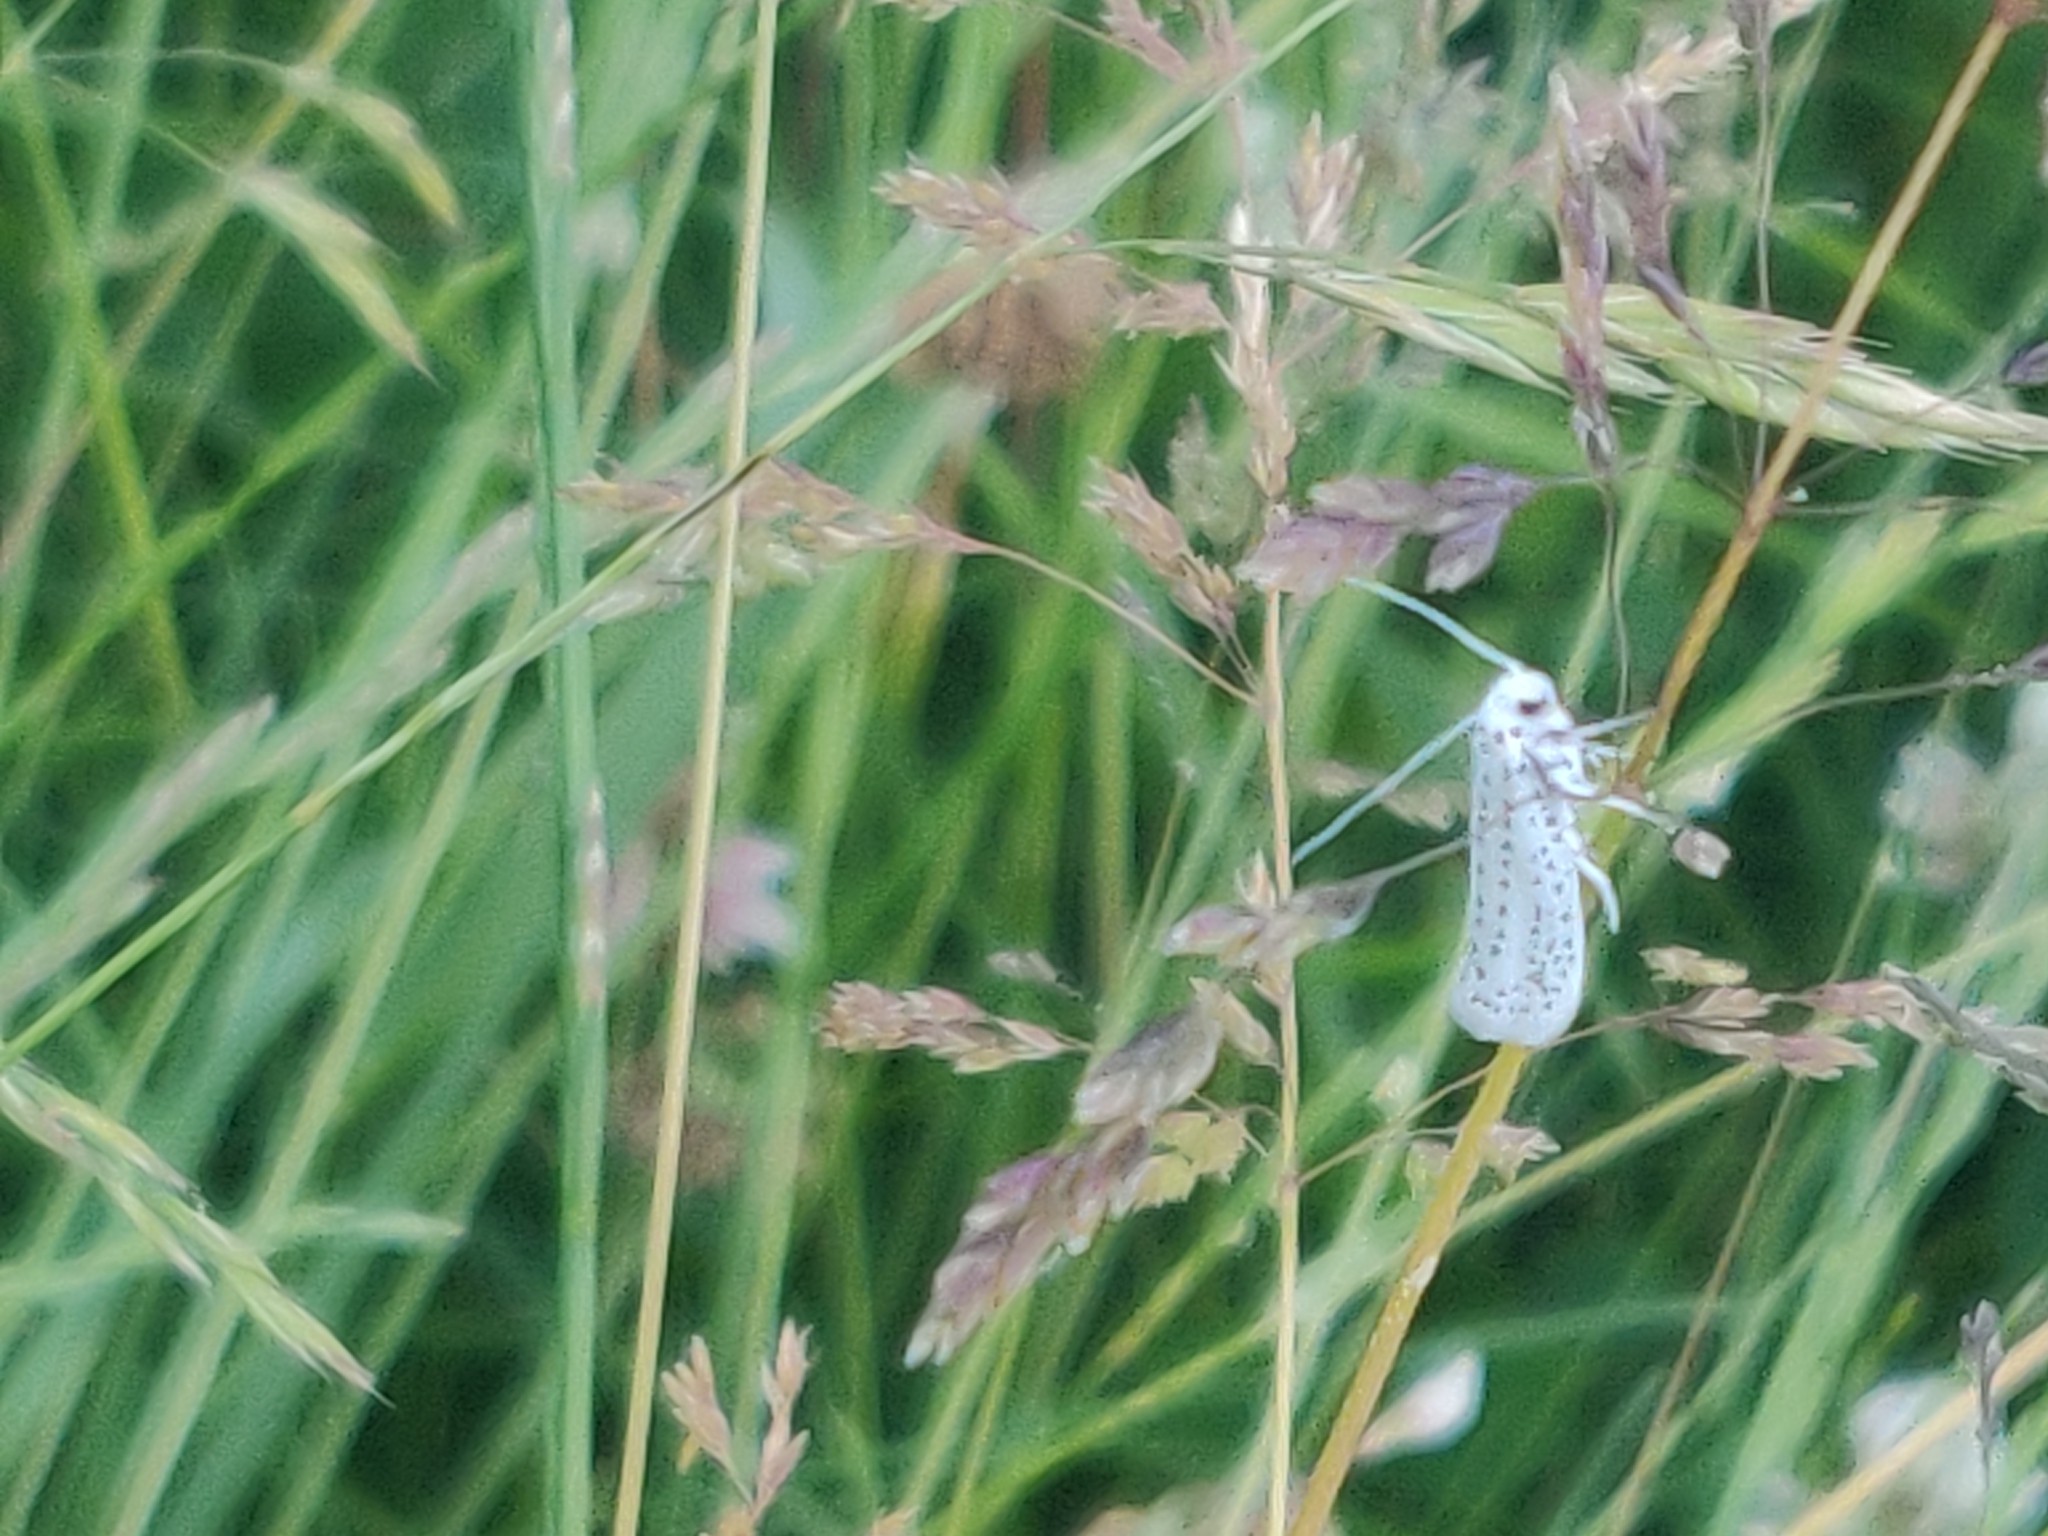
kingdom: Animalia
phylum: Arthropoda
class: Insecta
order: Lepidoptera
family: Yponomeutidae
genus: Yponomeuta
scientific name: Yponomeuta evonymella
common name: Bird-cherry ermine
